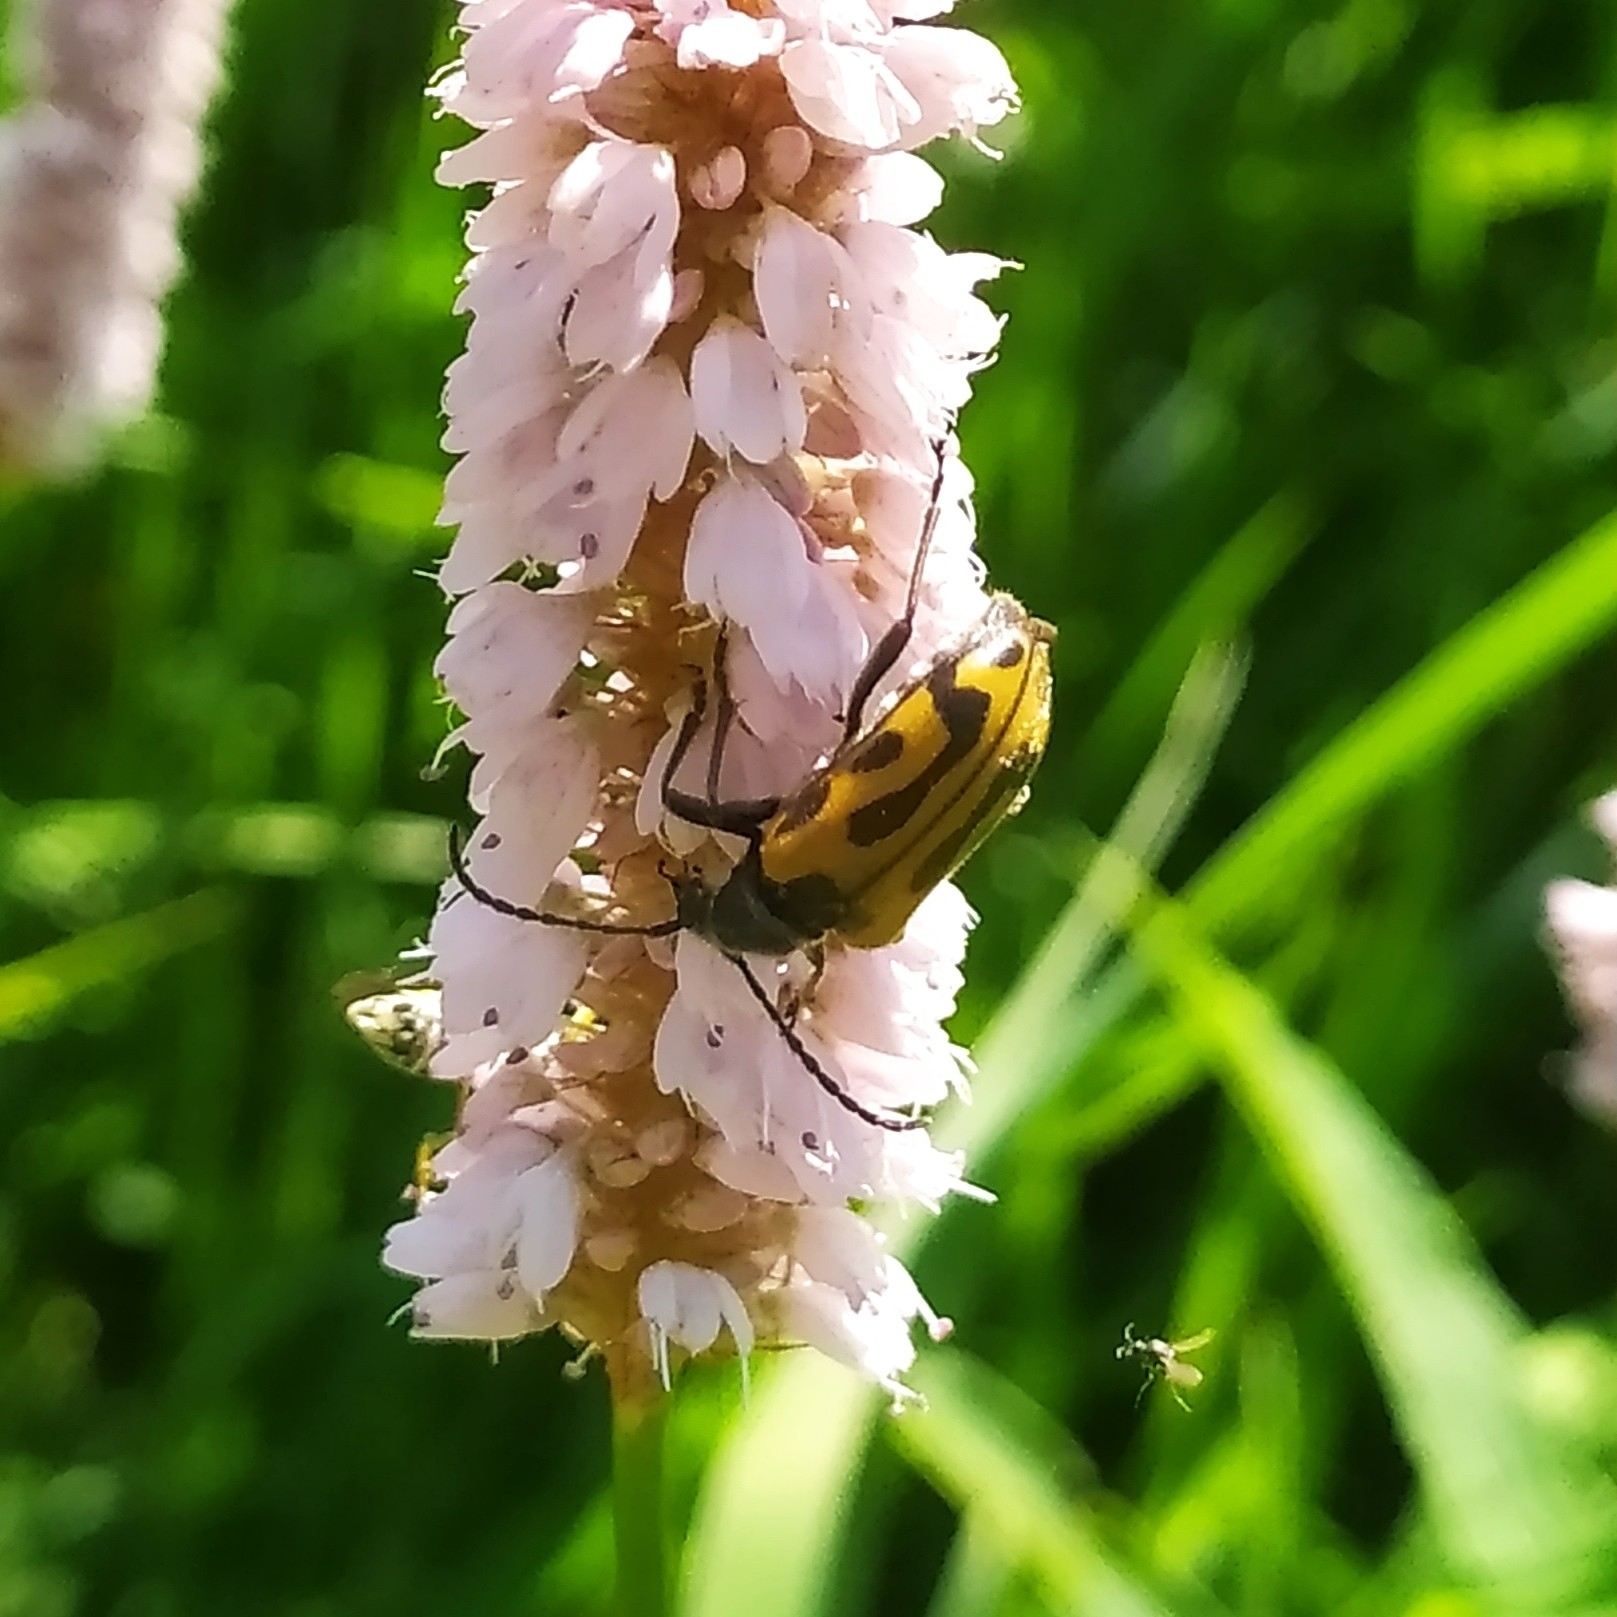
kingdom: Animalia
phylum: Arthropoda
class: Insecta
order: Coleoptera
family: Cerambycidae
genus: Brachyta
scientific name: Brachyta interrogationis
